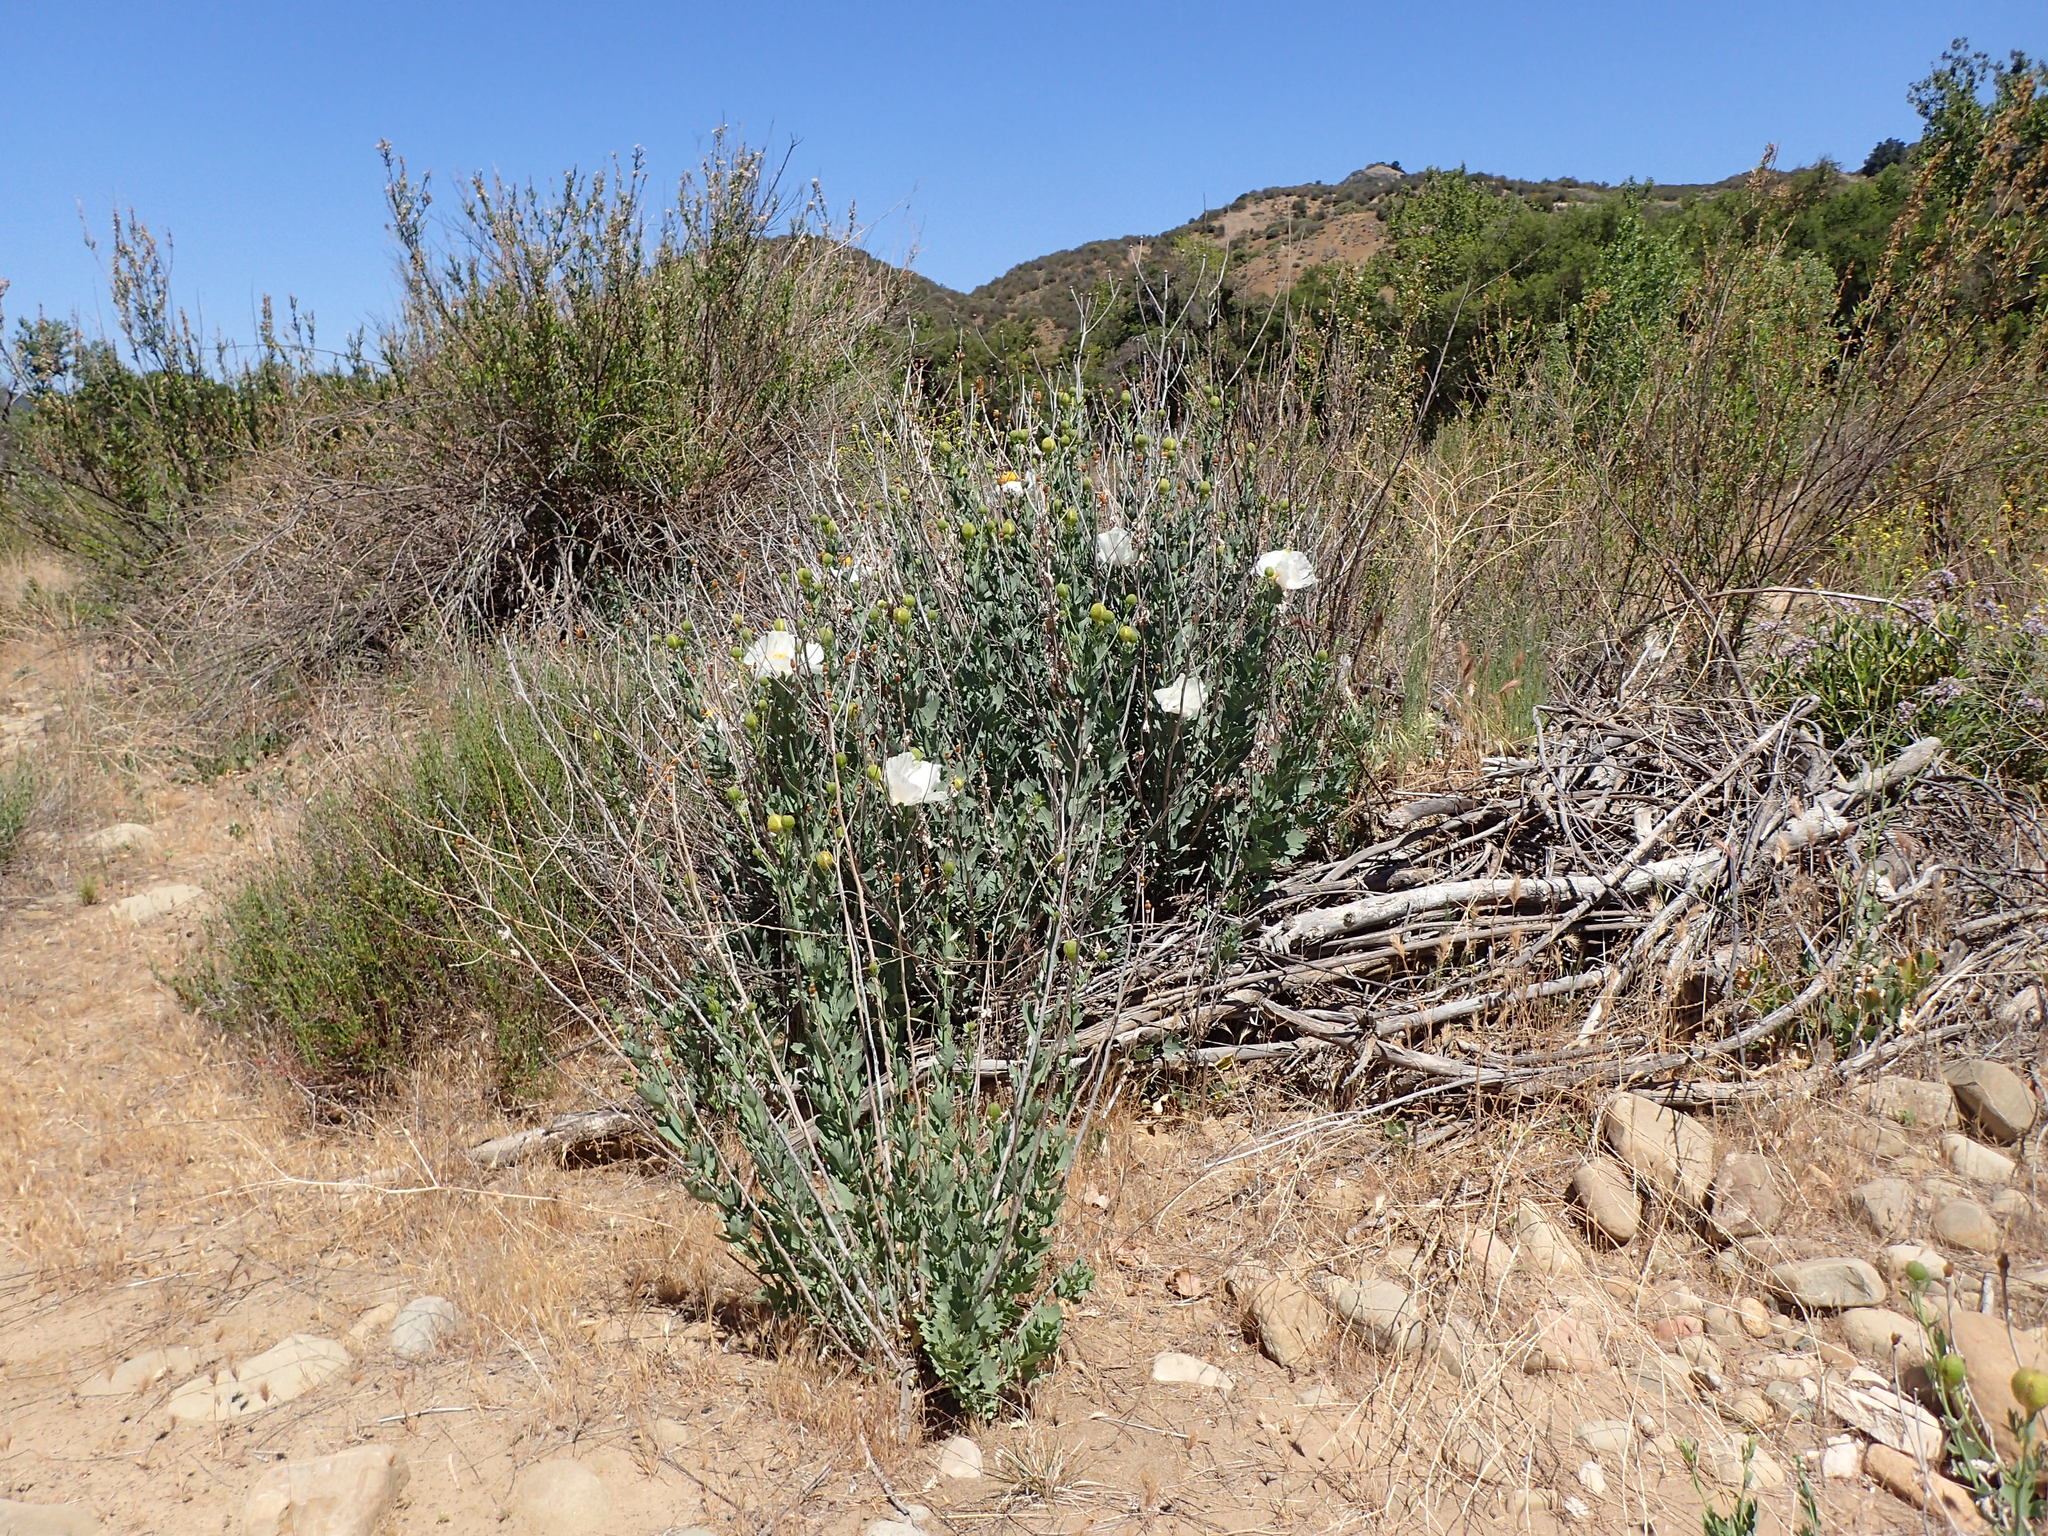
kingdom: Plantae
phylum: Tracheophyta
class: Magnoliopsida
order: Ranunculales
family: Papaveraceae
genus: Romneya
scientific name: Romneya trichocalyx
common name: Hairy matilija-poppy
